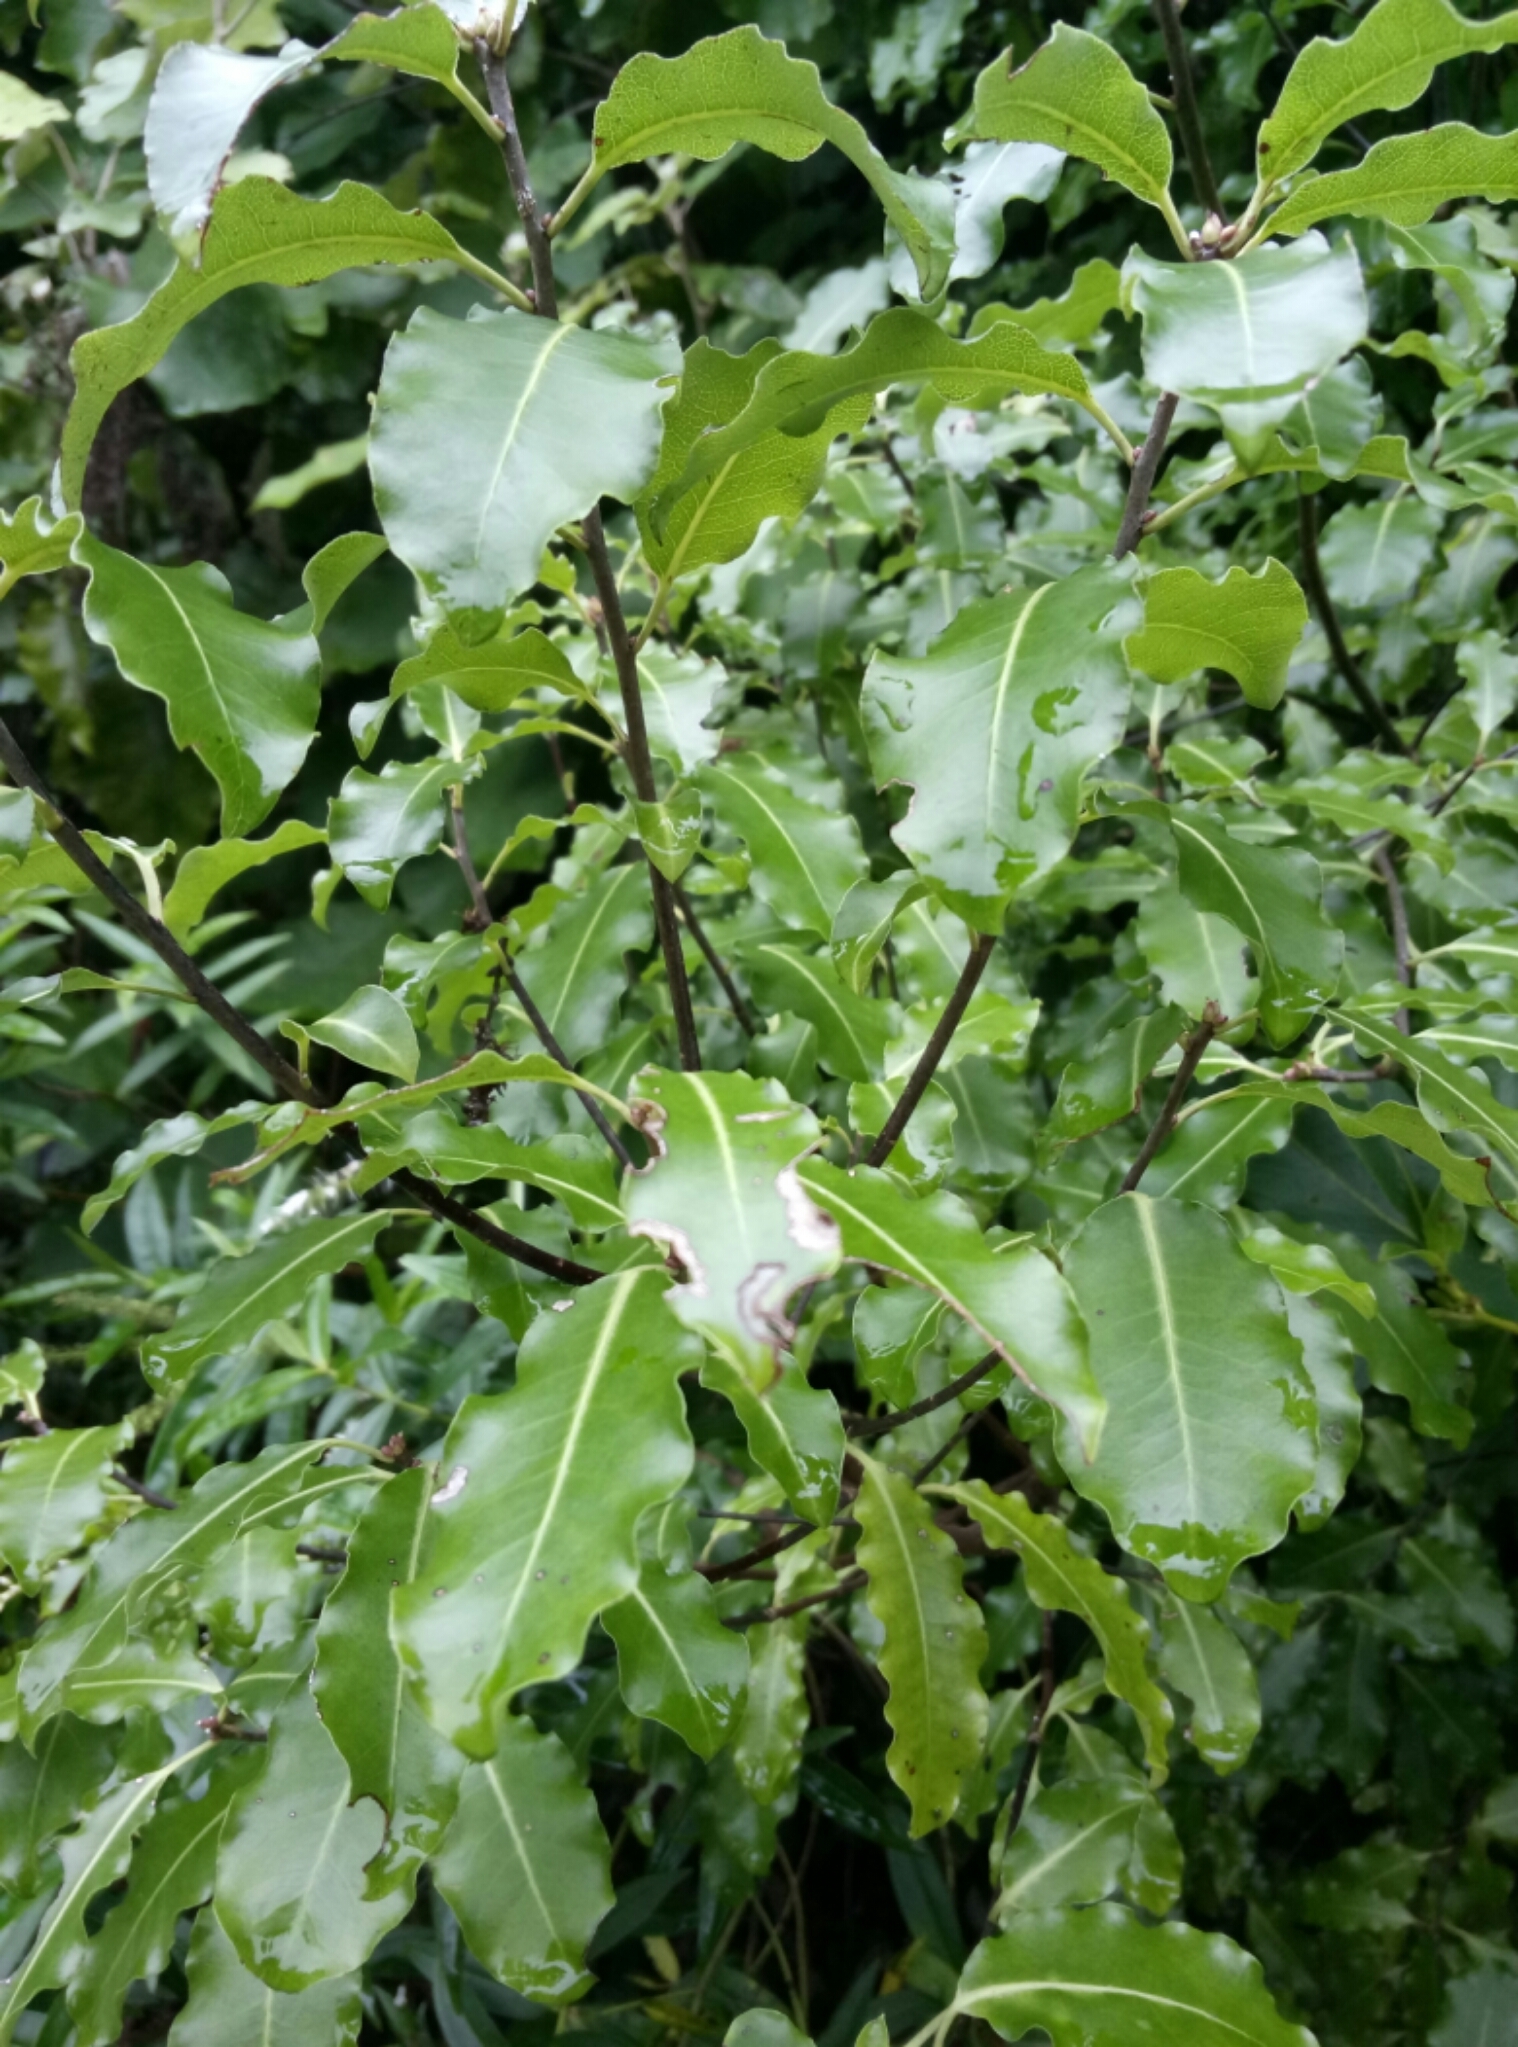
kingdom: Plantae
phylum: Tracheophyta
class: Magnoliopsida
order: Apiales
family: Pittosporaceae
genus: Pittosporum
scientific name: Pittosporum eugenioides
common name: Lemonwood
